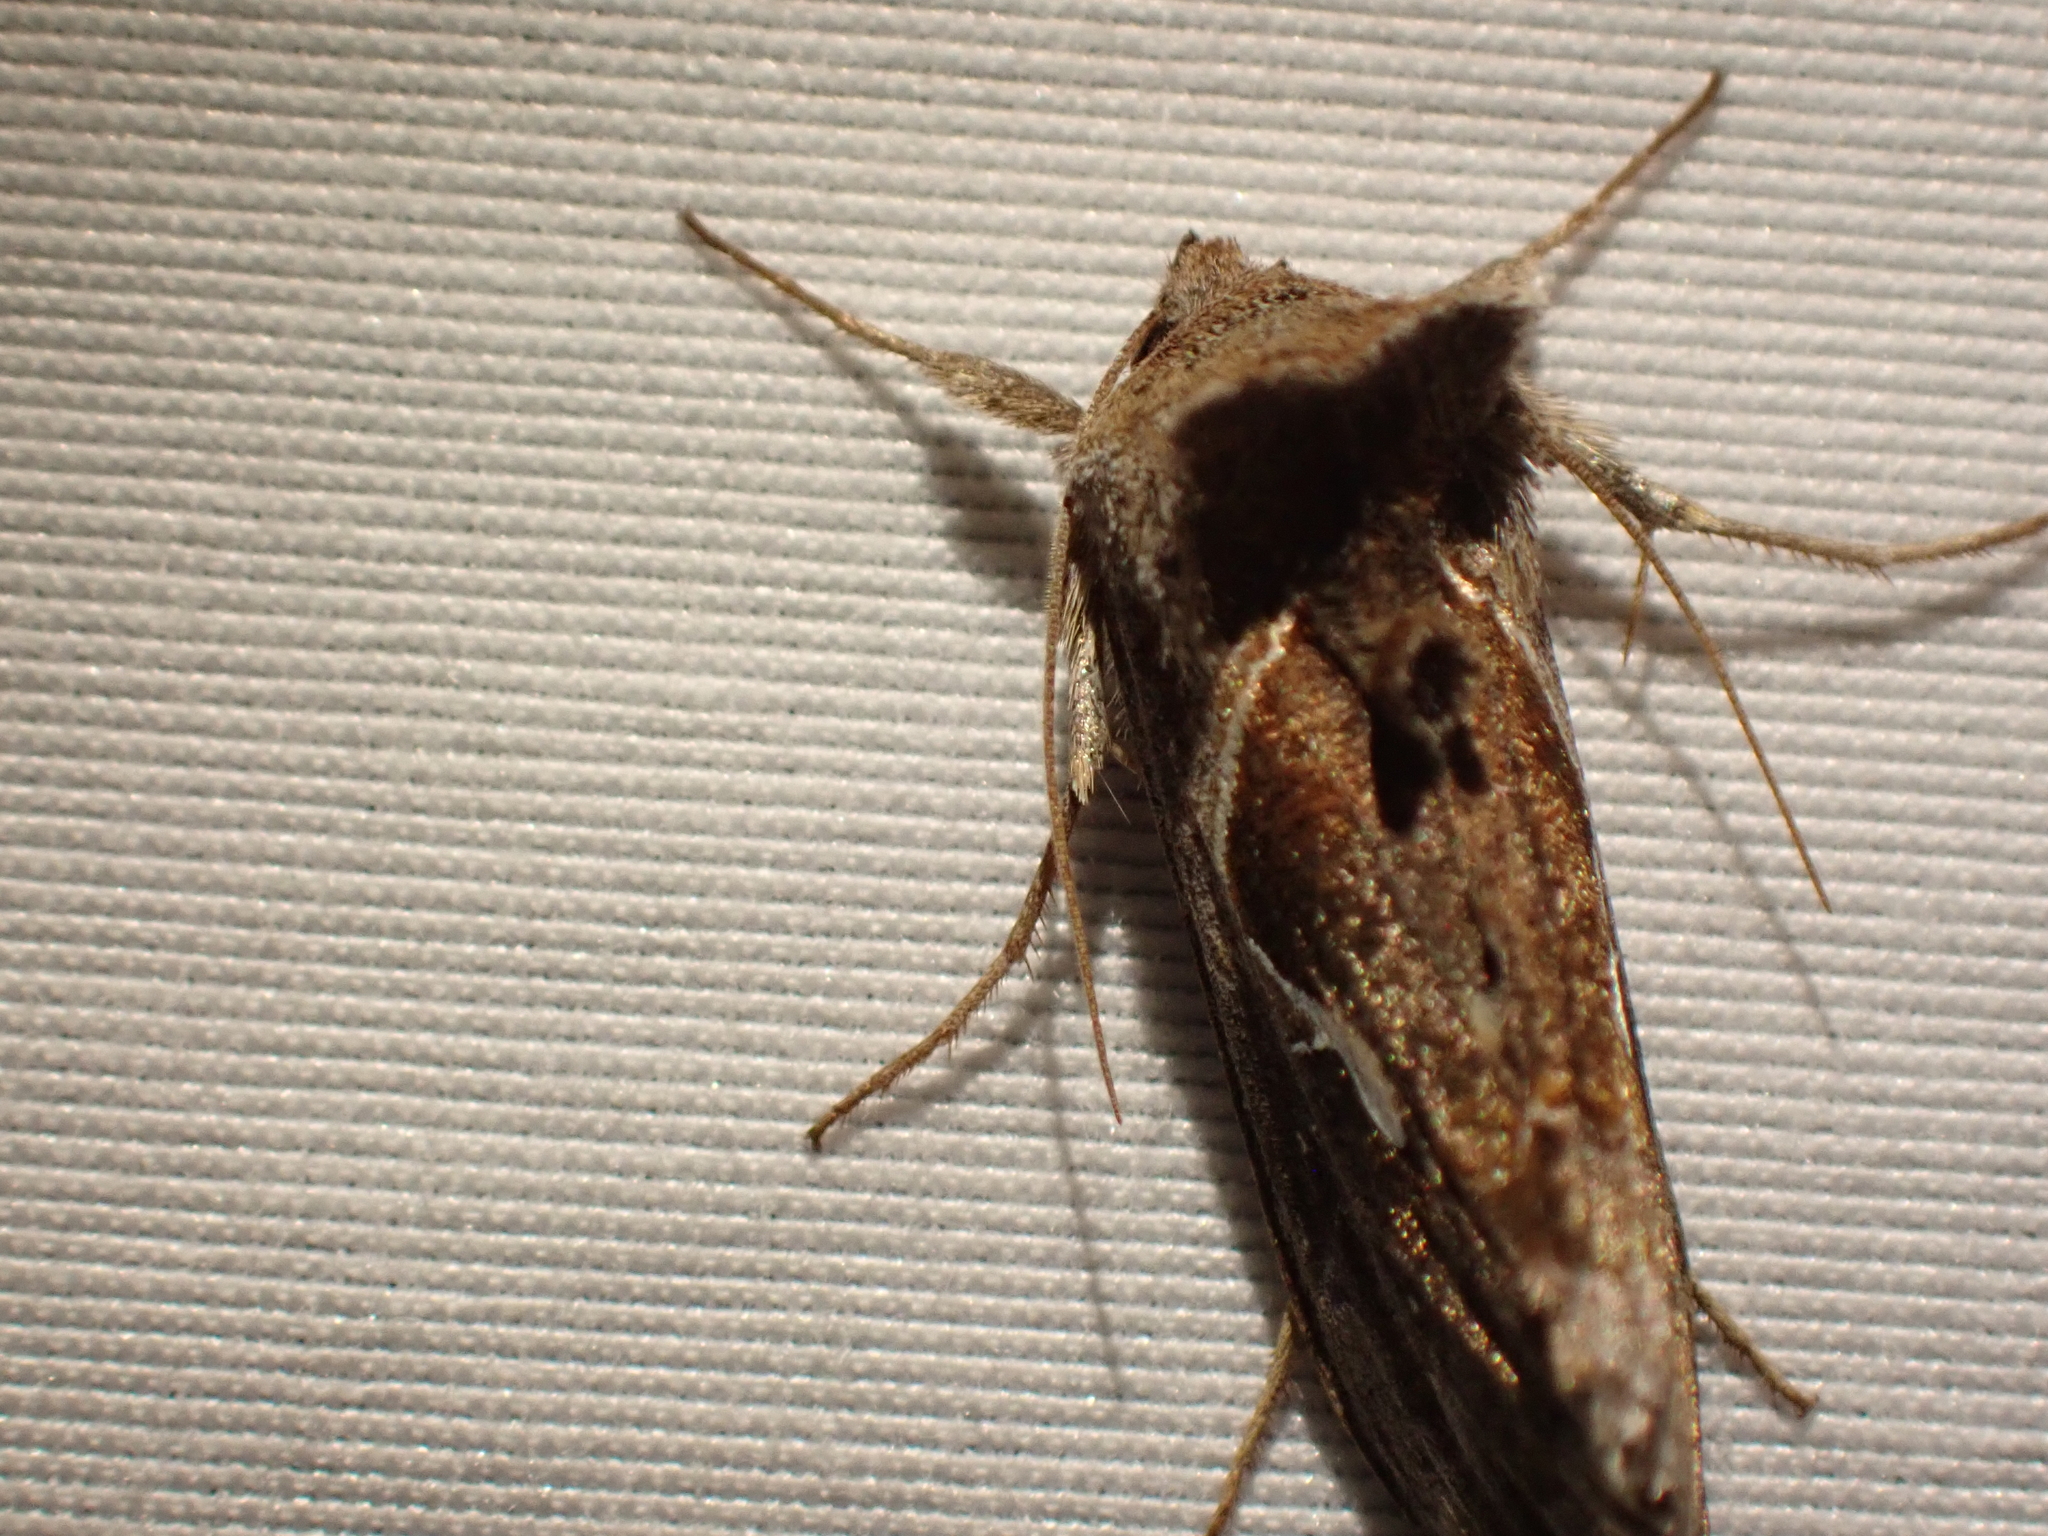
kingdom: Animalia
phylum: Arthropoda
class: Insecta
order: Lepidoptera
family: Noctuidae
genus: Anagrapha
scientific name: Anagrapha falcifera
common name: Celery looper
